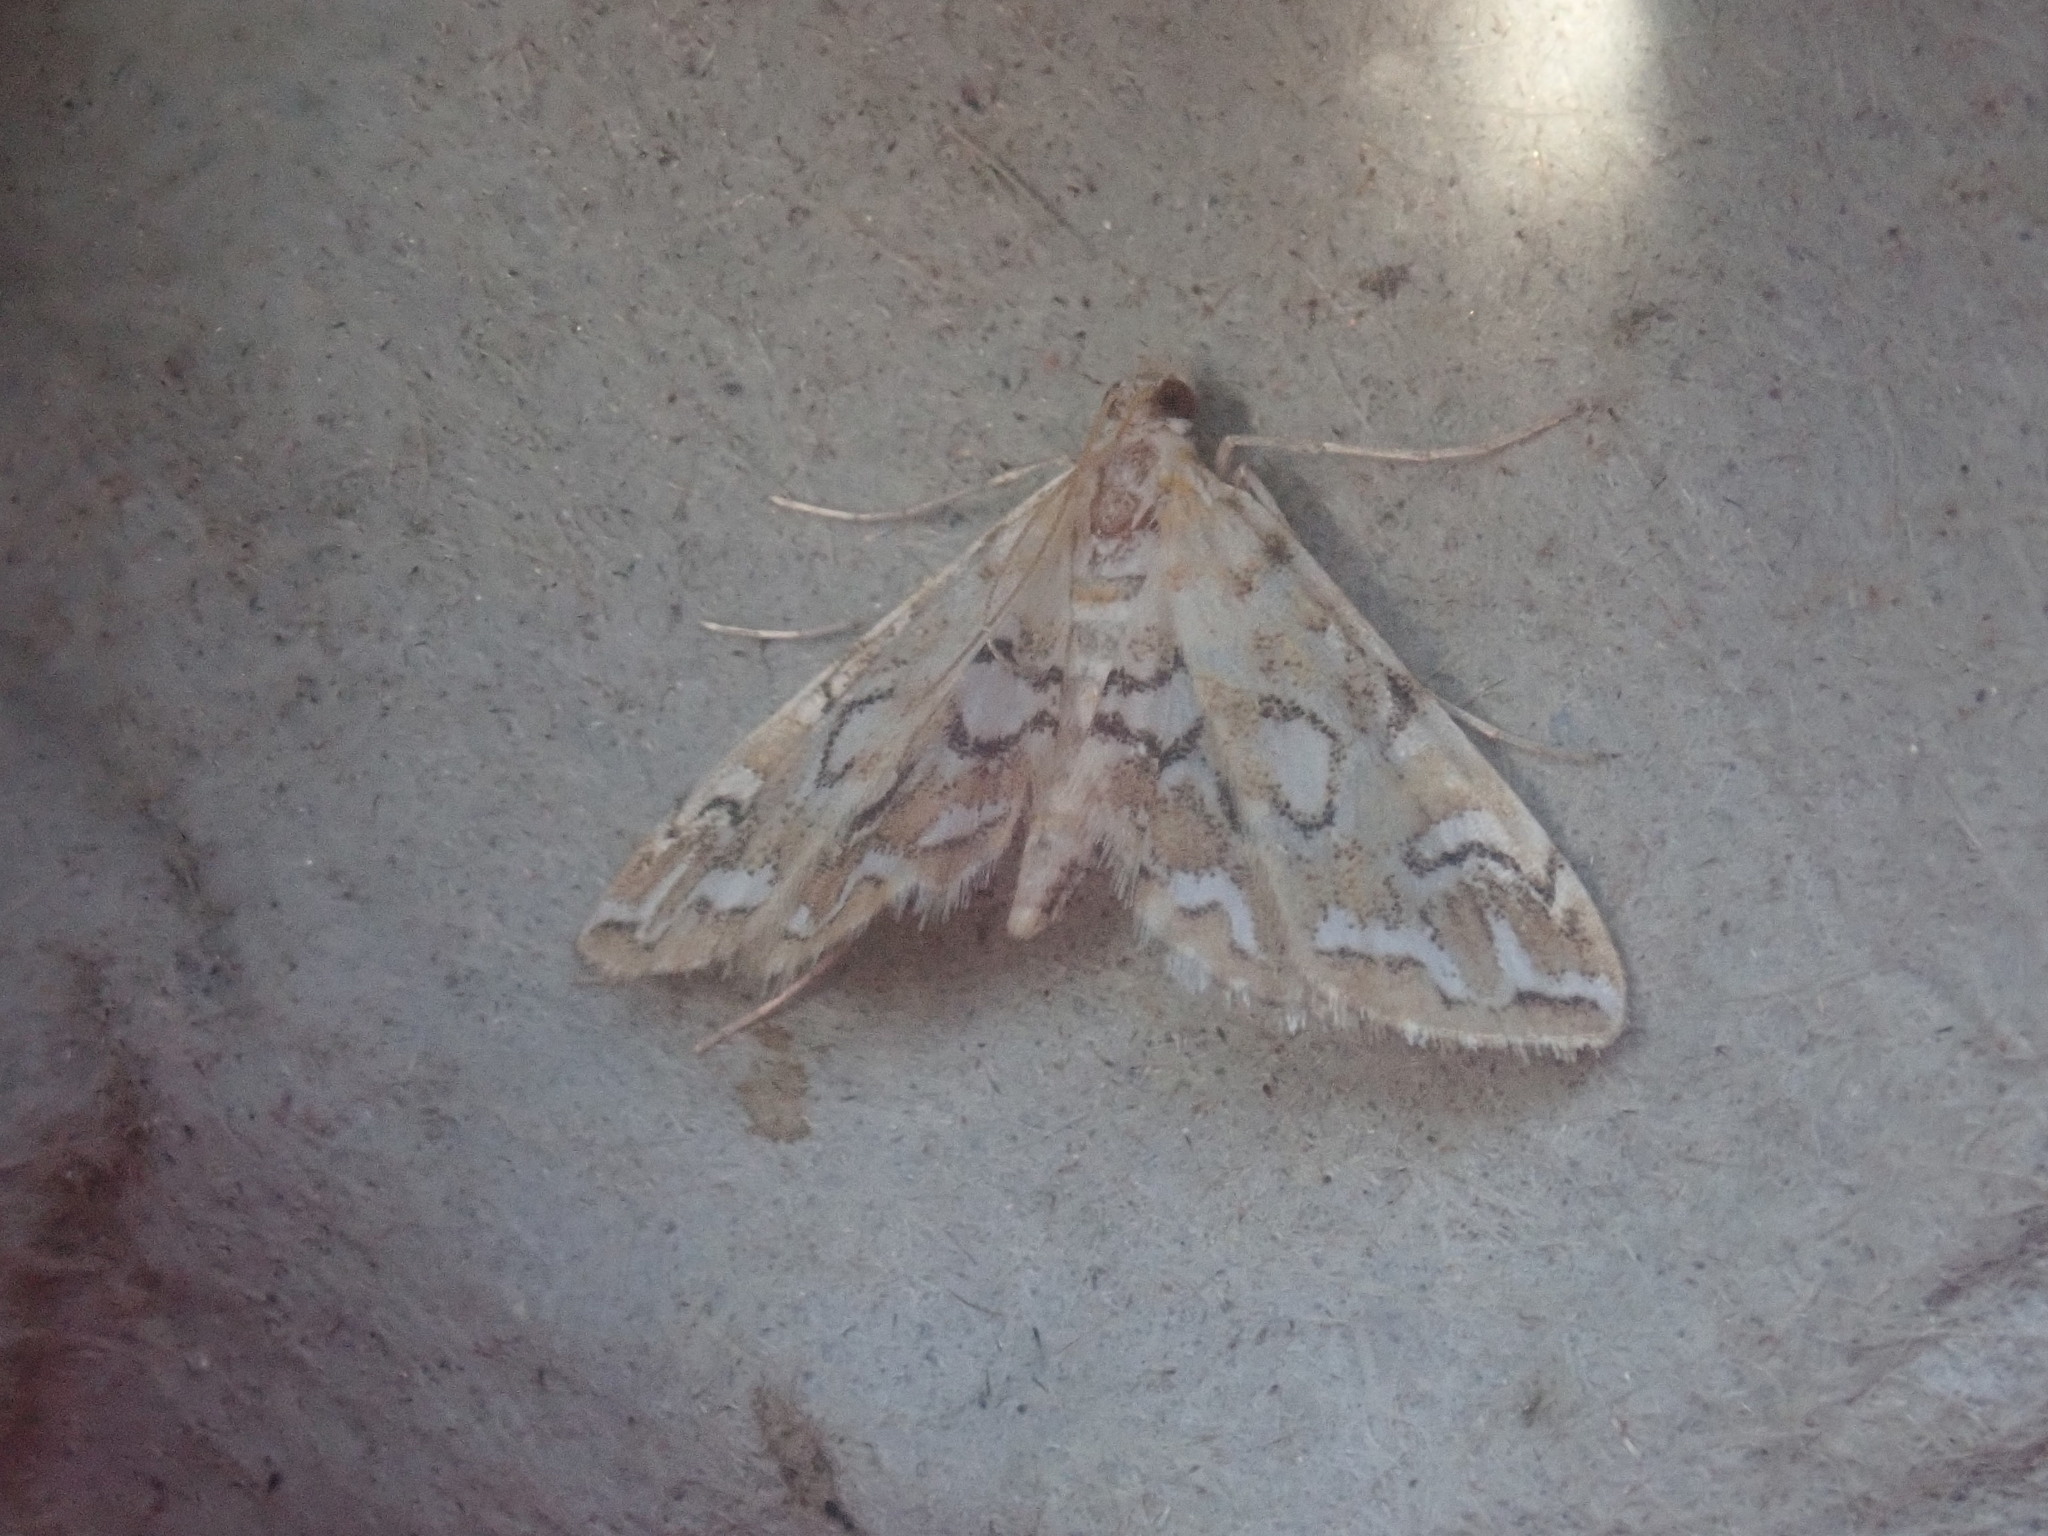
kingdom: Animalia
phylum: Arthropoda
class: Insecta
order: Lepidoptera
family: Crambidae
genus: Elophila
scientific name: Elophila icciusalis
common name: Pondside pyralid moth
